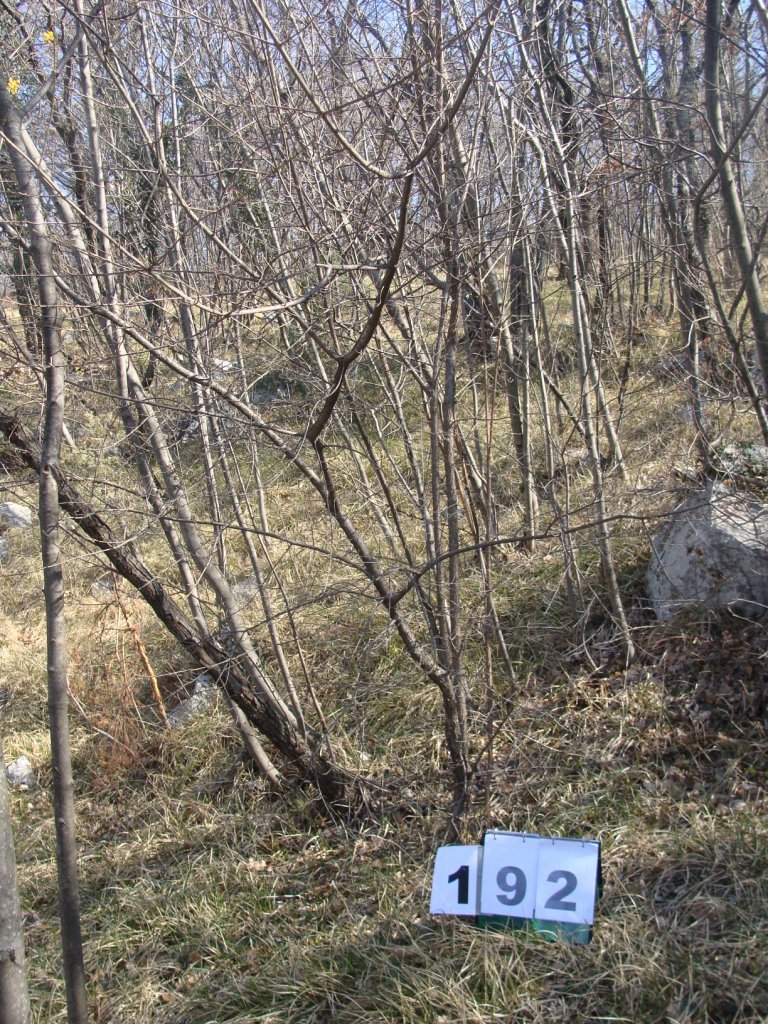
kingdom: Plantae
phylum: Tracheophyta
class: Magnoliopsida
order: Cornales
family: Cornaceae
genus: Cornus
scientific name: Cornus mas
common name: Cornelian-cherry
